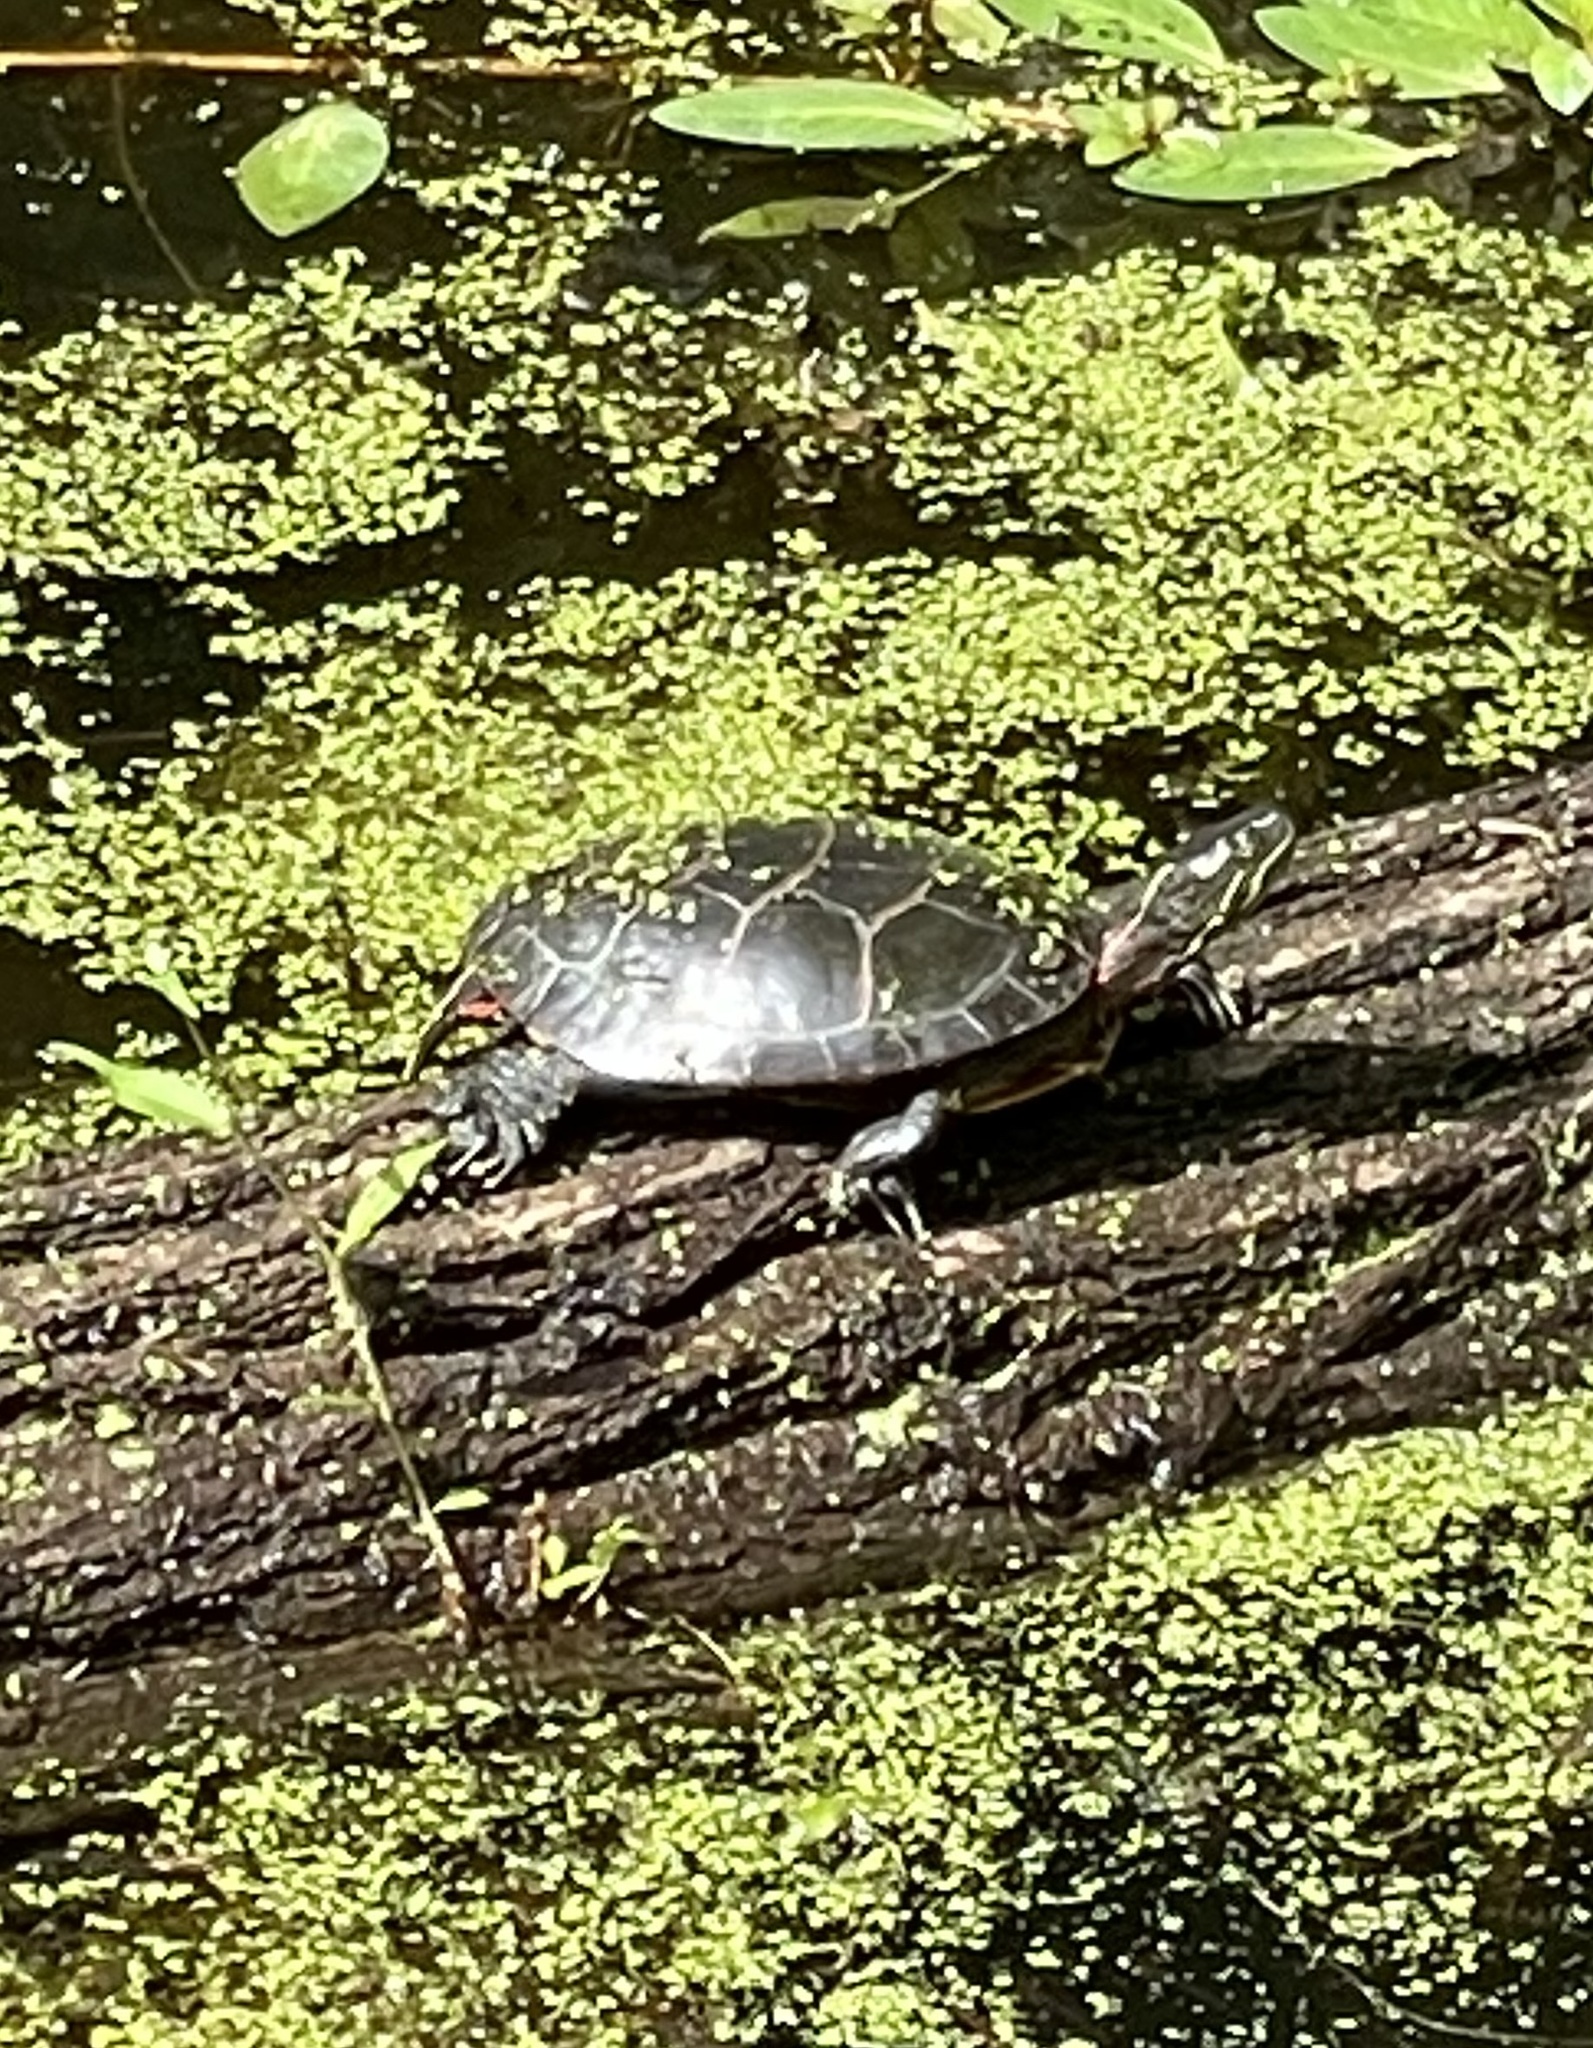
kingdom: Animalia
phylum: Chordata
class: Testudines
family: Emydidae
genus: Chrysemys
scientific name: Chrysemys picta
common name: Painted turtle
